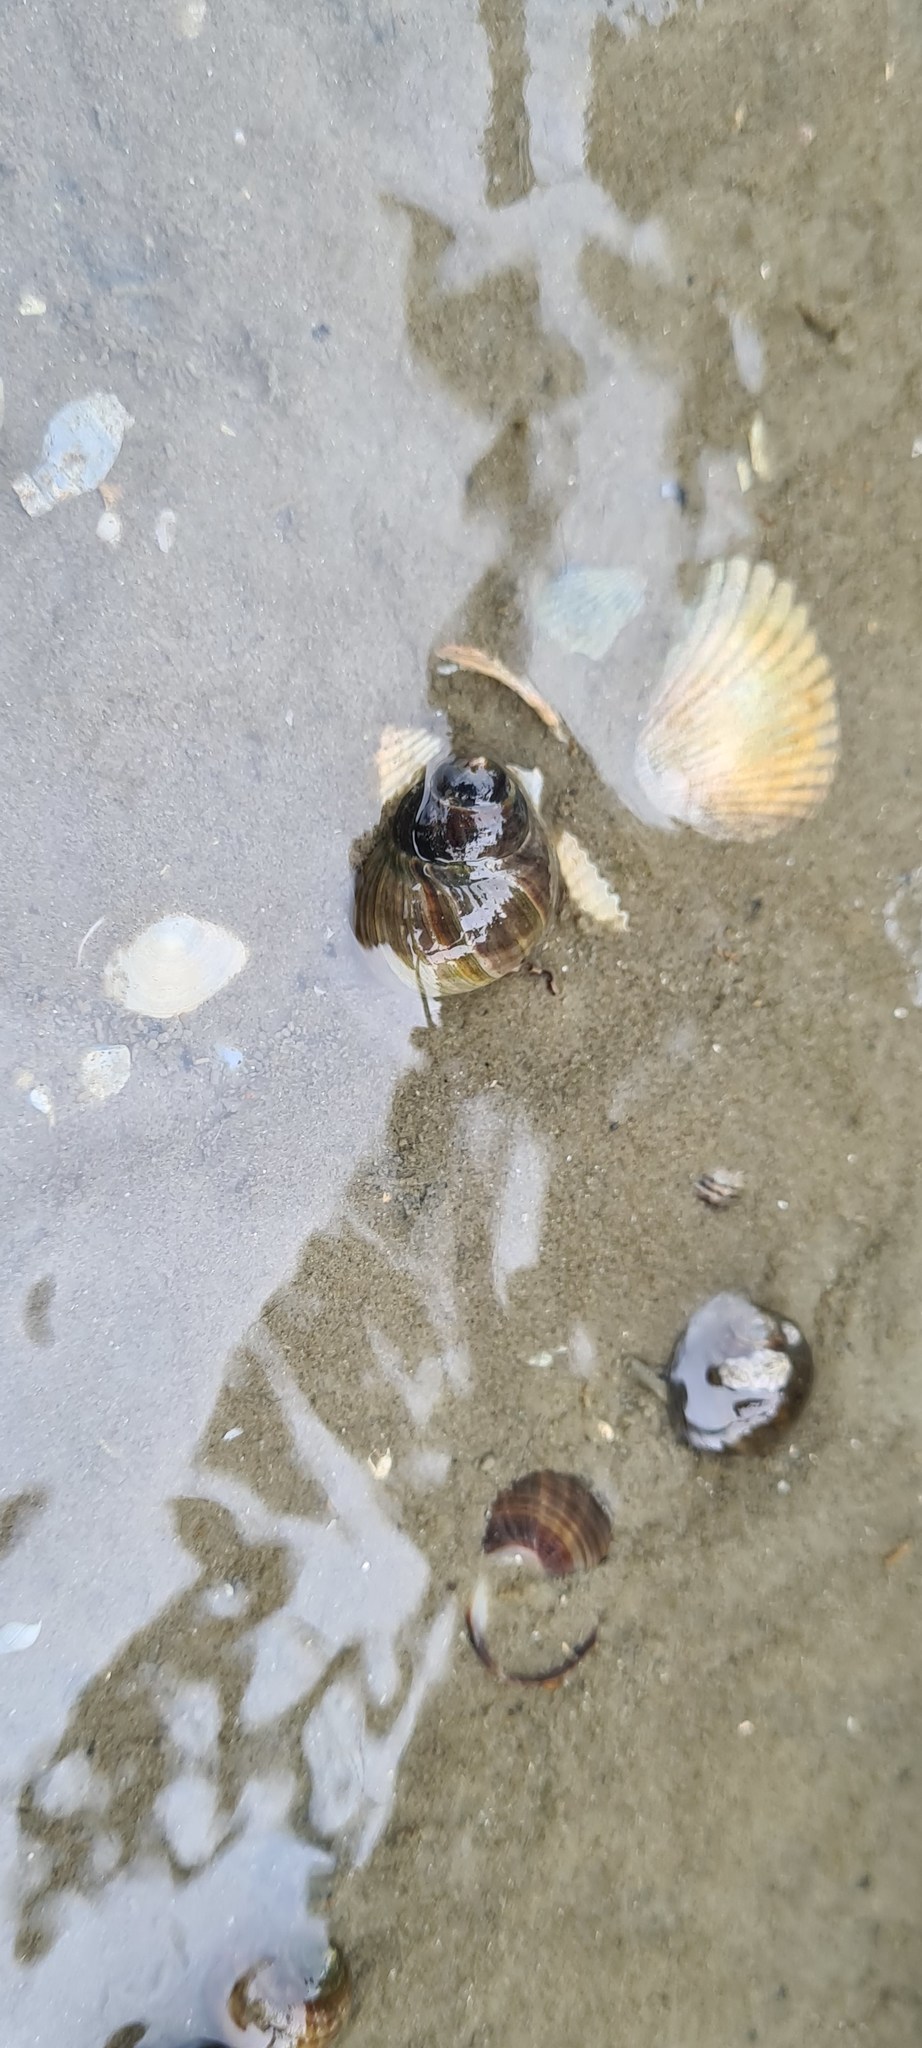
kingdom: Animalia
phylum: Mollusca
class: Gastropoda
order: Littorinimorpha
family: Littorinidae
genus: Littorina
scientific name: Littorina littorea
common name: Common periwinkle
